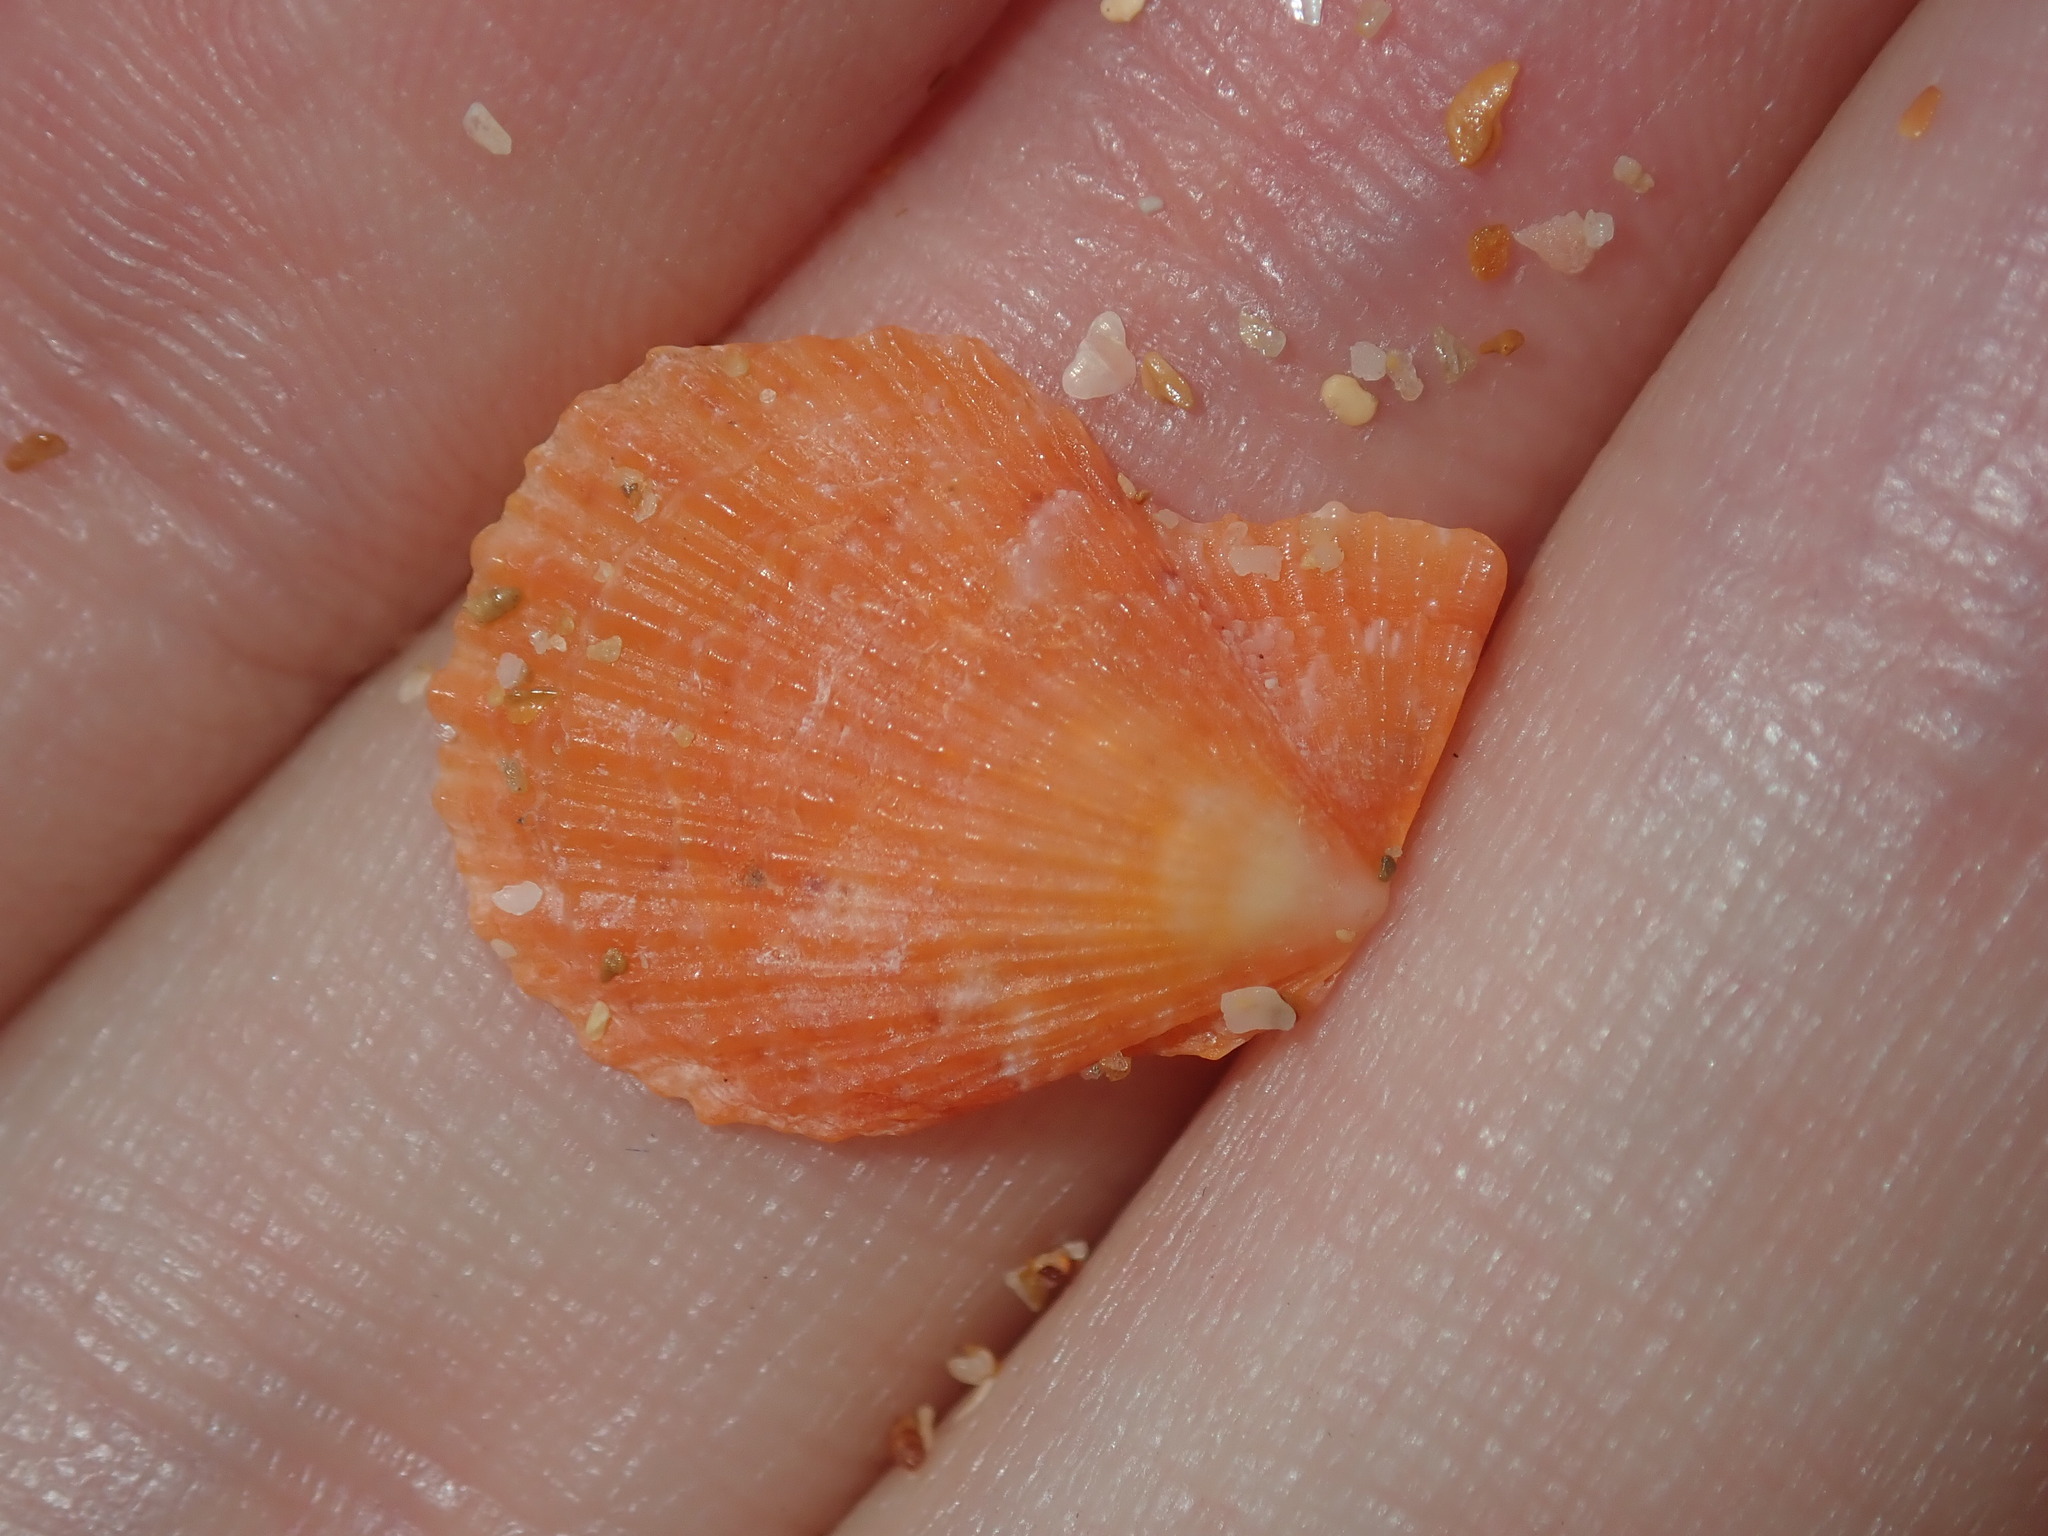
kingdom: Animalia
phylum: Mollusca
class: Bivalvia
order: Pectinida
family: Pectinidae
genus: Scaeochlamys
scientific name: Scaeochlamys livida
